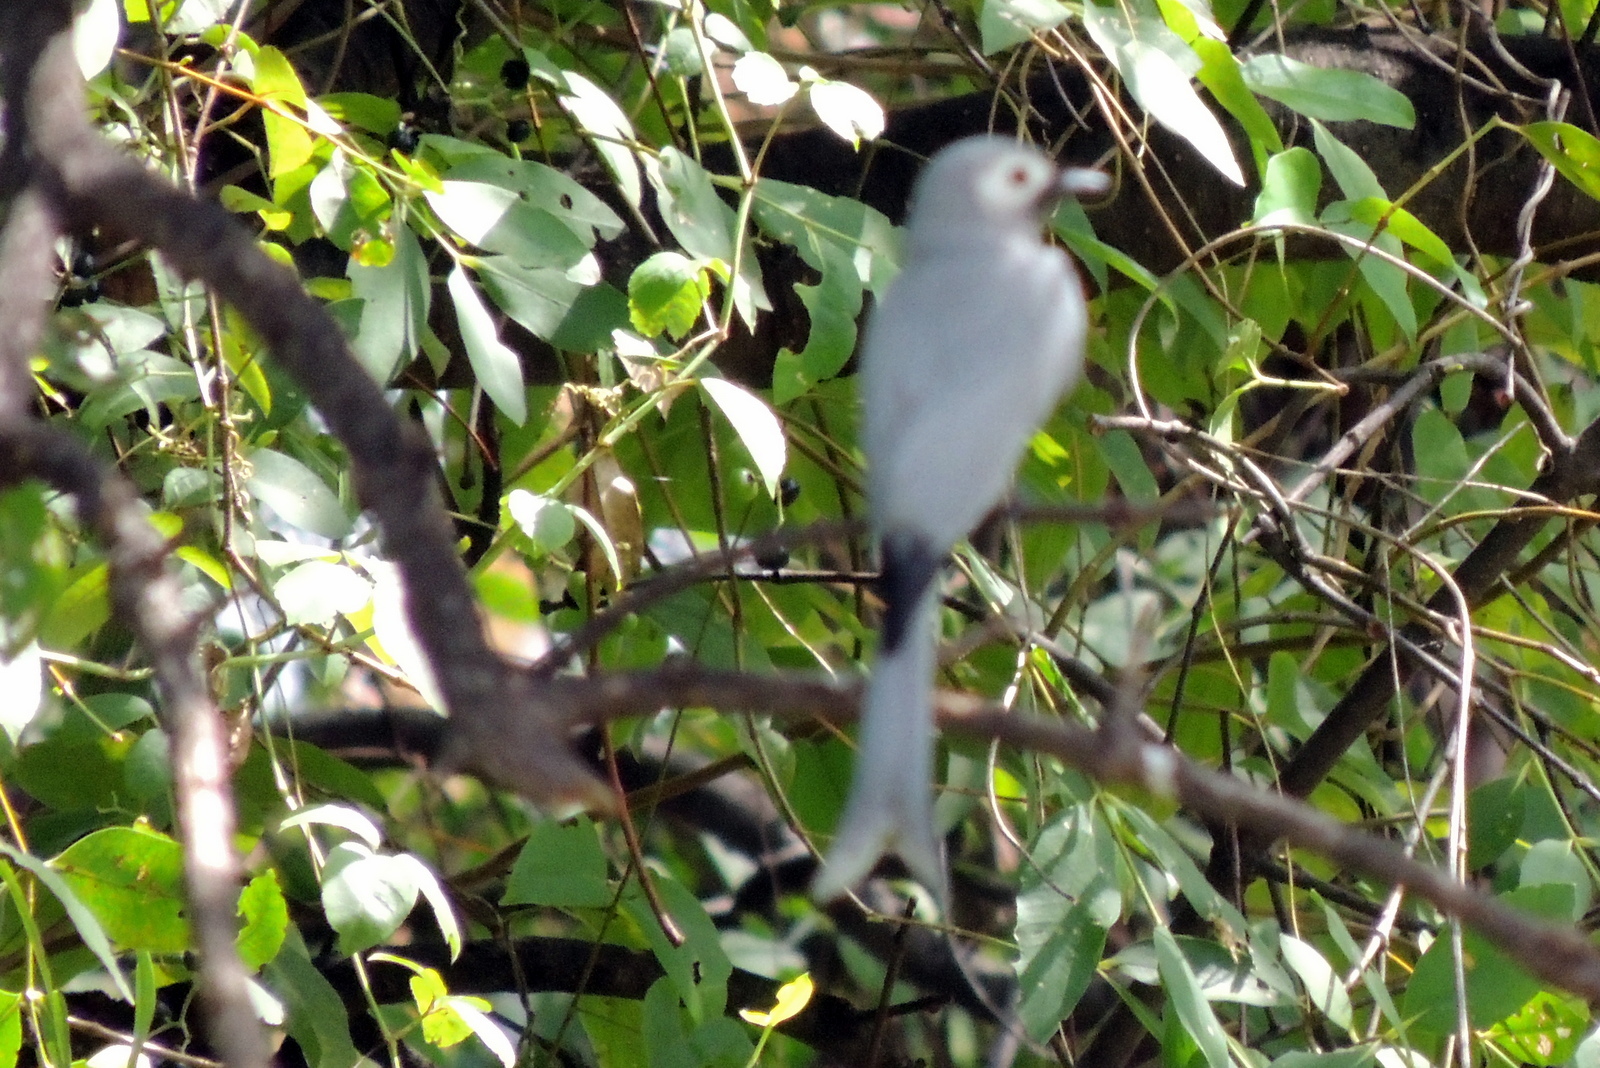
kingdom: Animalia
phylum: Chordata
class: Aves
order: Passeriformes
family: Dicruridae
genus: Dicrurus
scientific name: Dicrurus leucophaeus
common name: Ashy drongo
